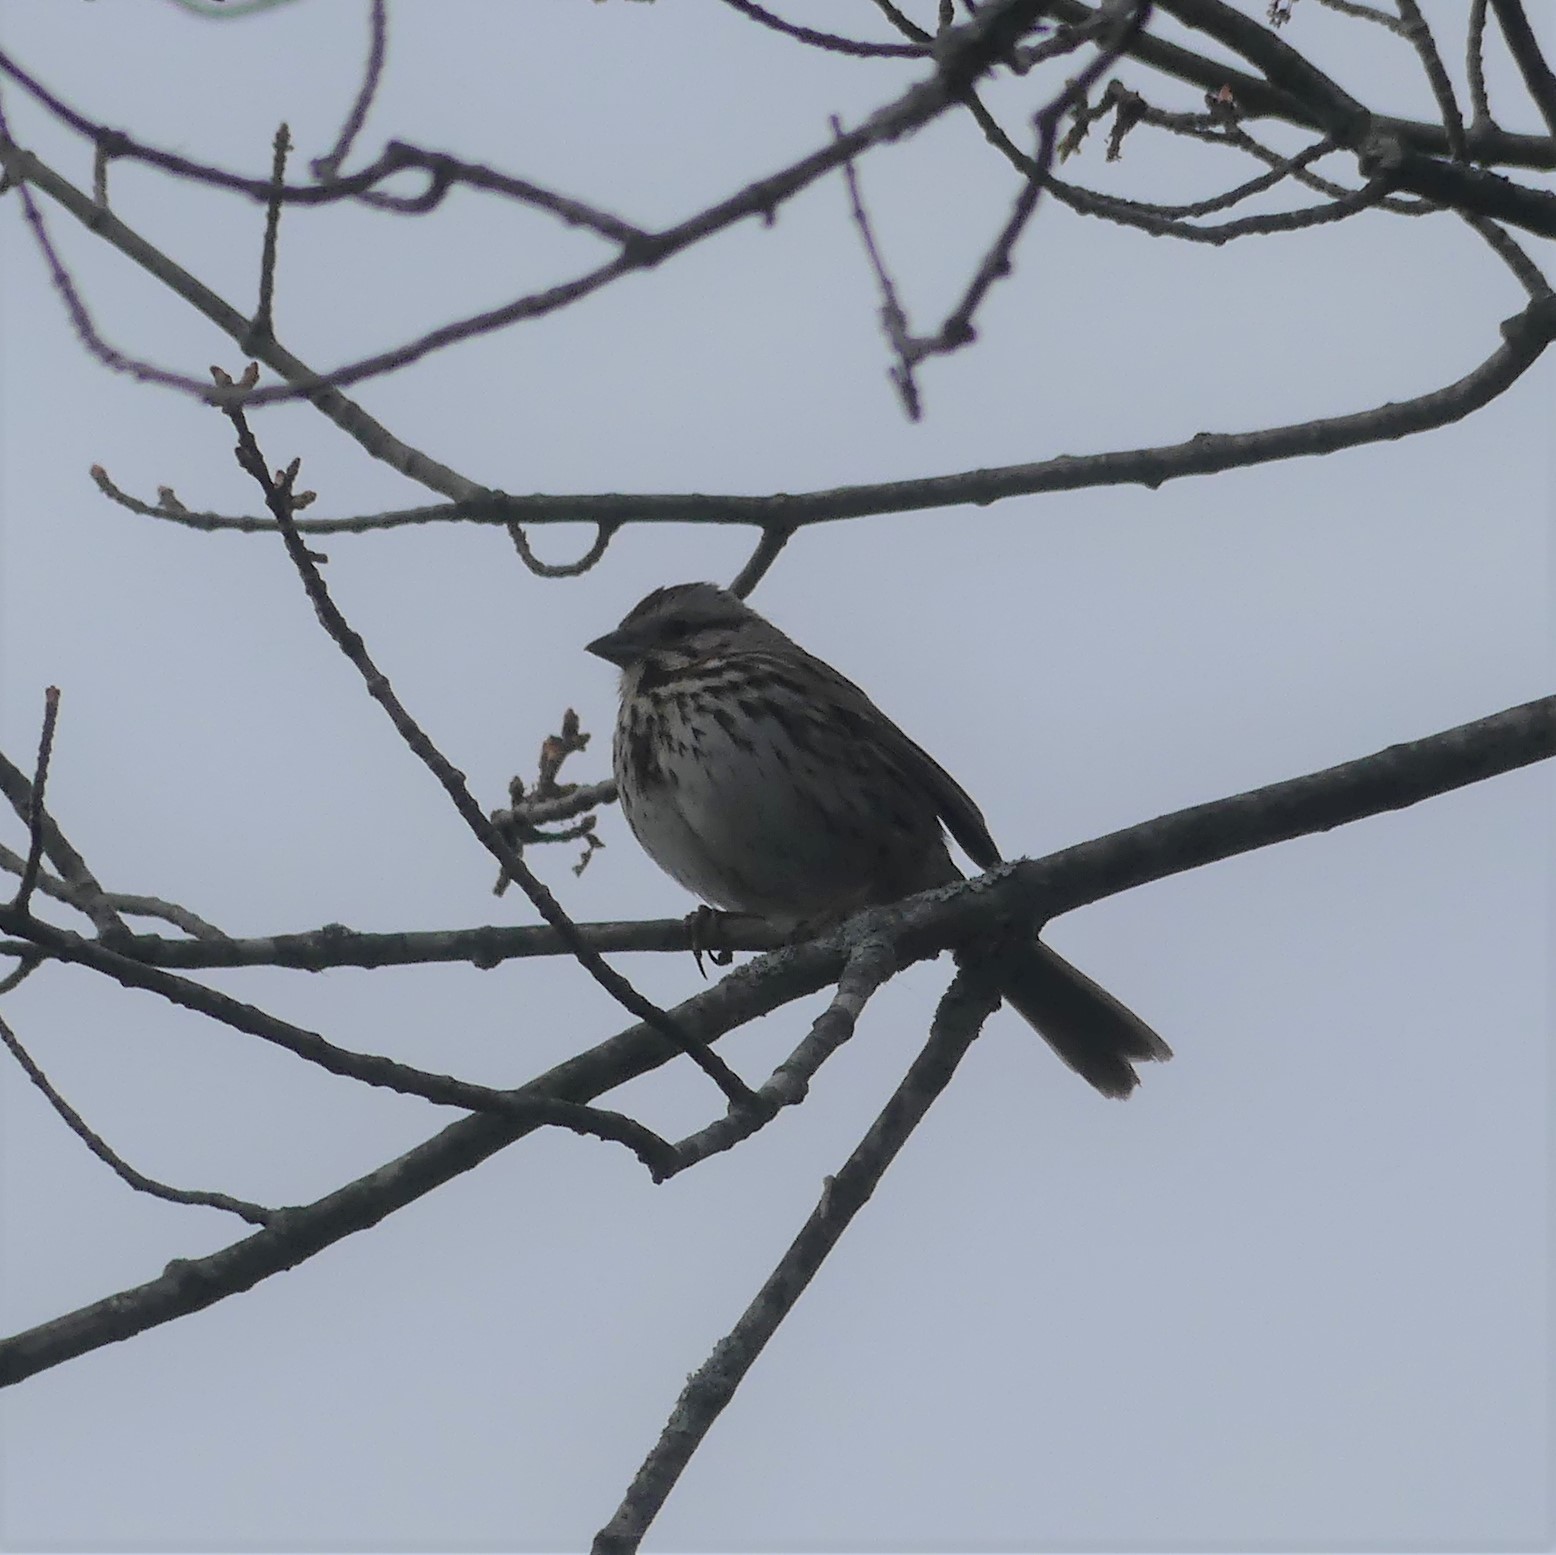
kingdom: Animalia
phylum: Chordata
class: Aves
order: Passeriformes
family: Passerellidae
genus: Melospiza
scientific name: Melospiza melodia
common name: Song sparrow
